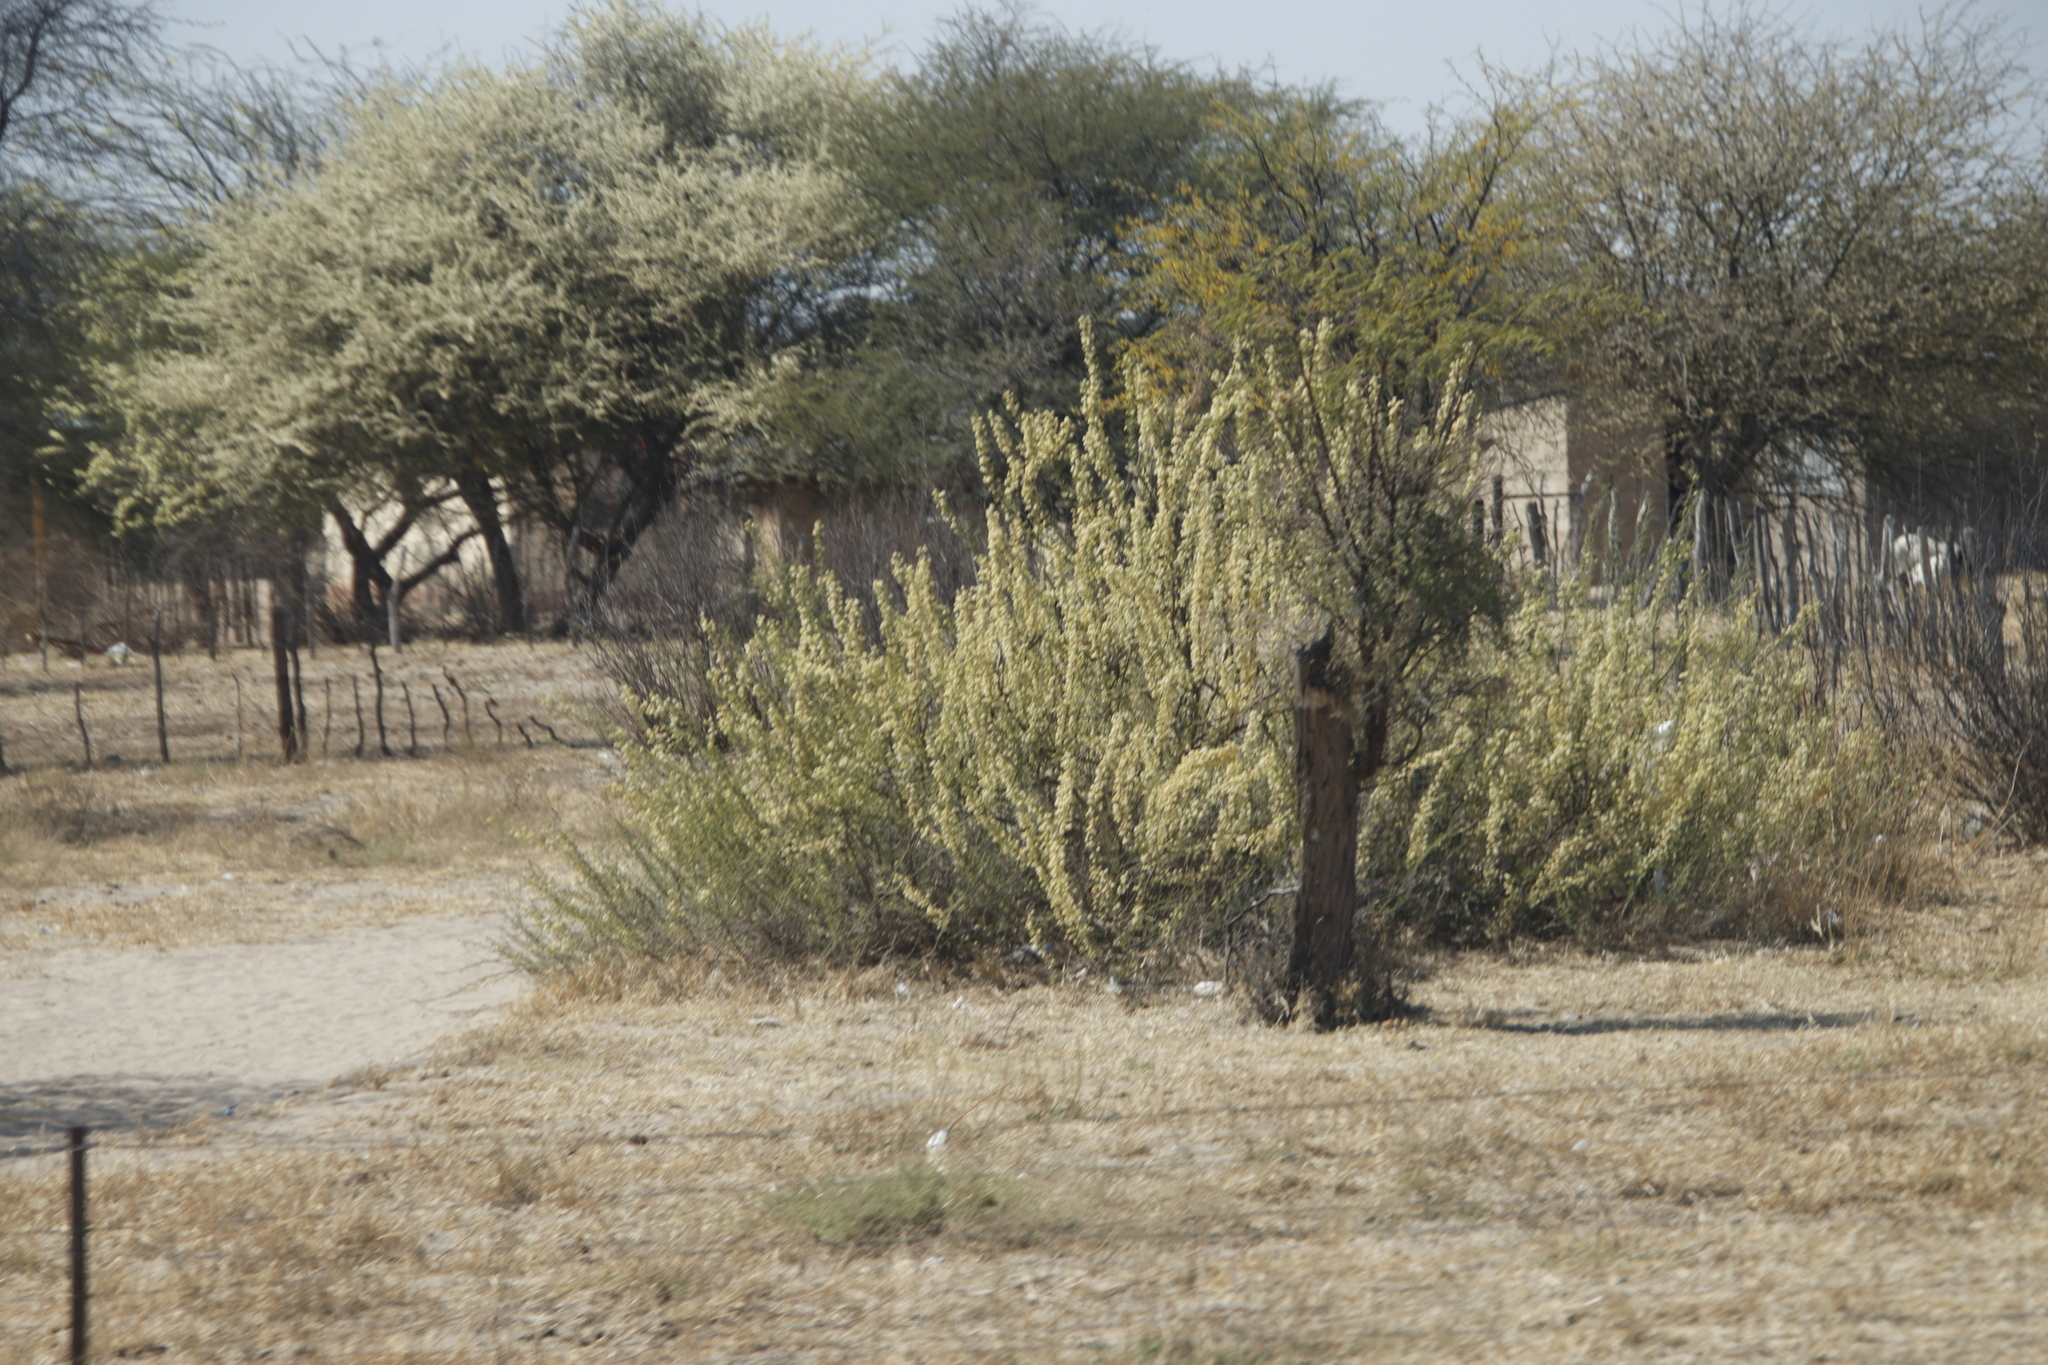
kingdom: Plantae
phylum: Tracheophyta
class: Magnoliopsida
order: Fabales
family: Fabaceae
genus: Vachellia
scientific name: Vachellia hebeclada
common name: Candle thorn
